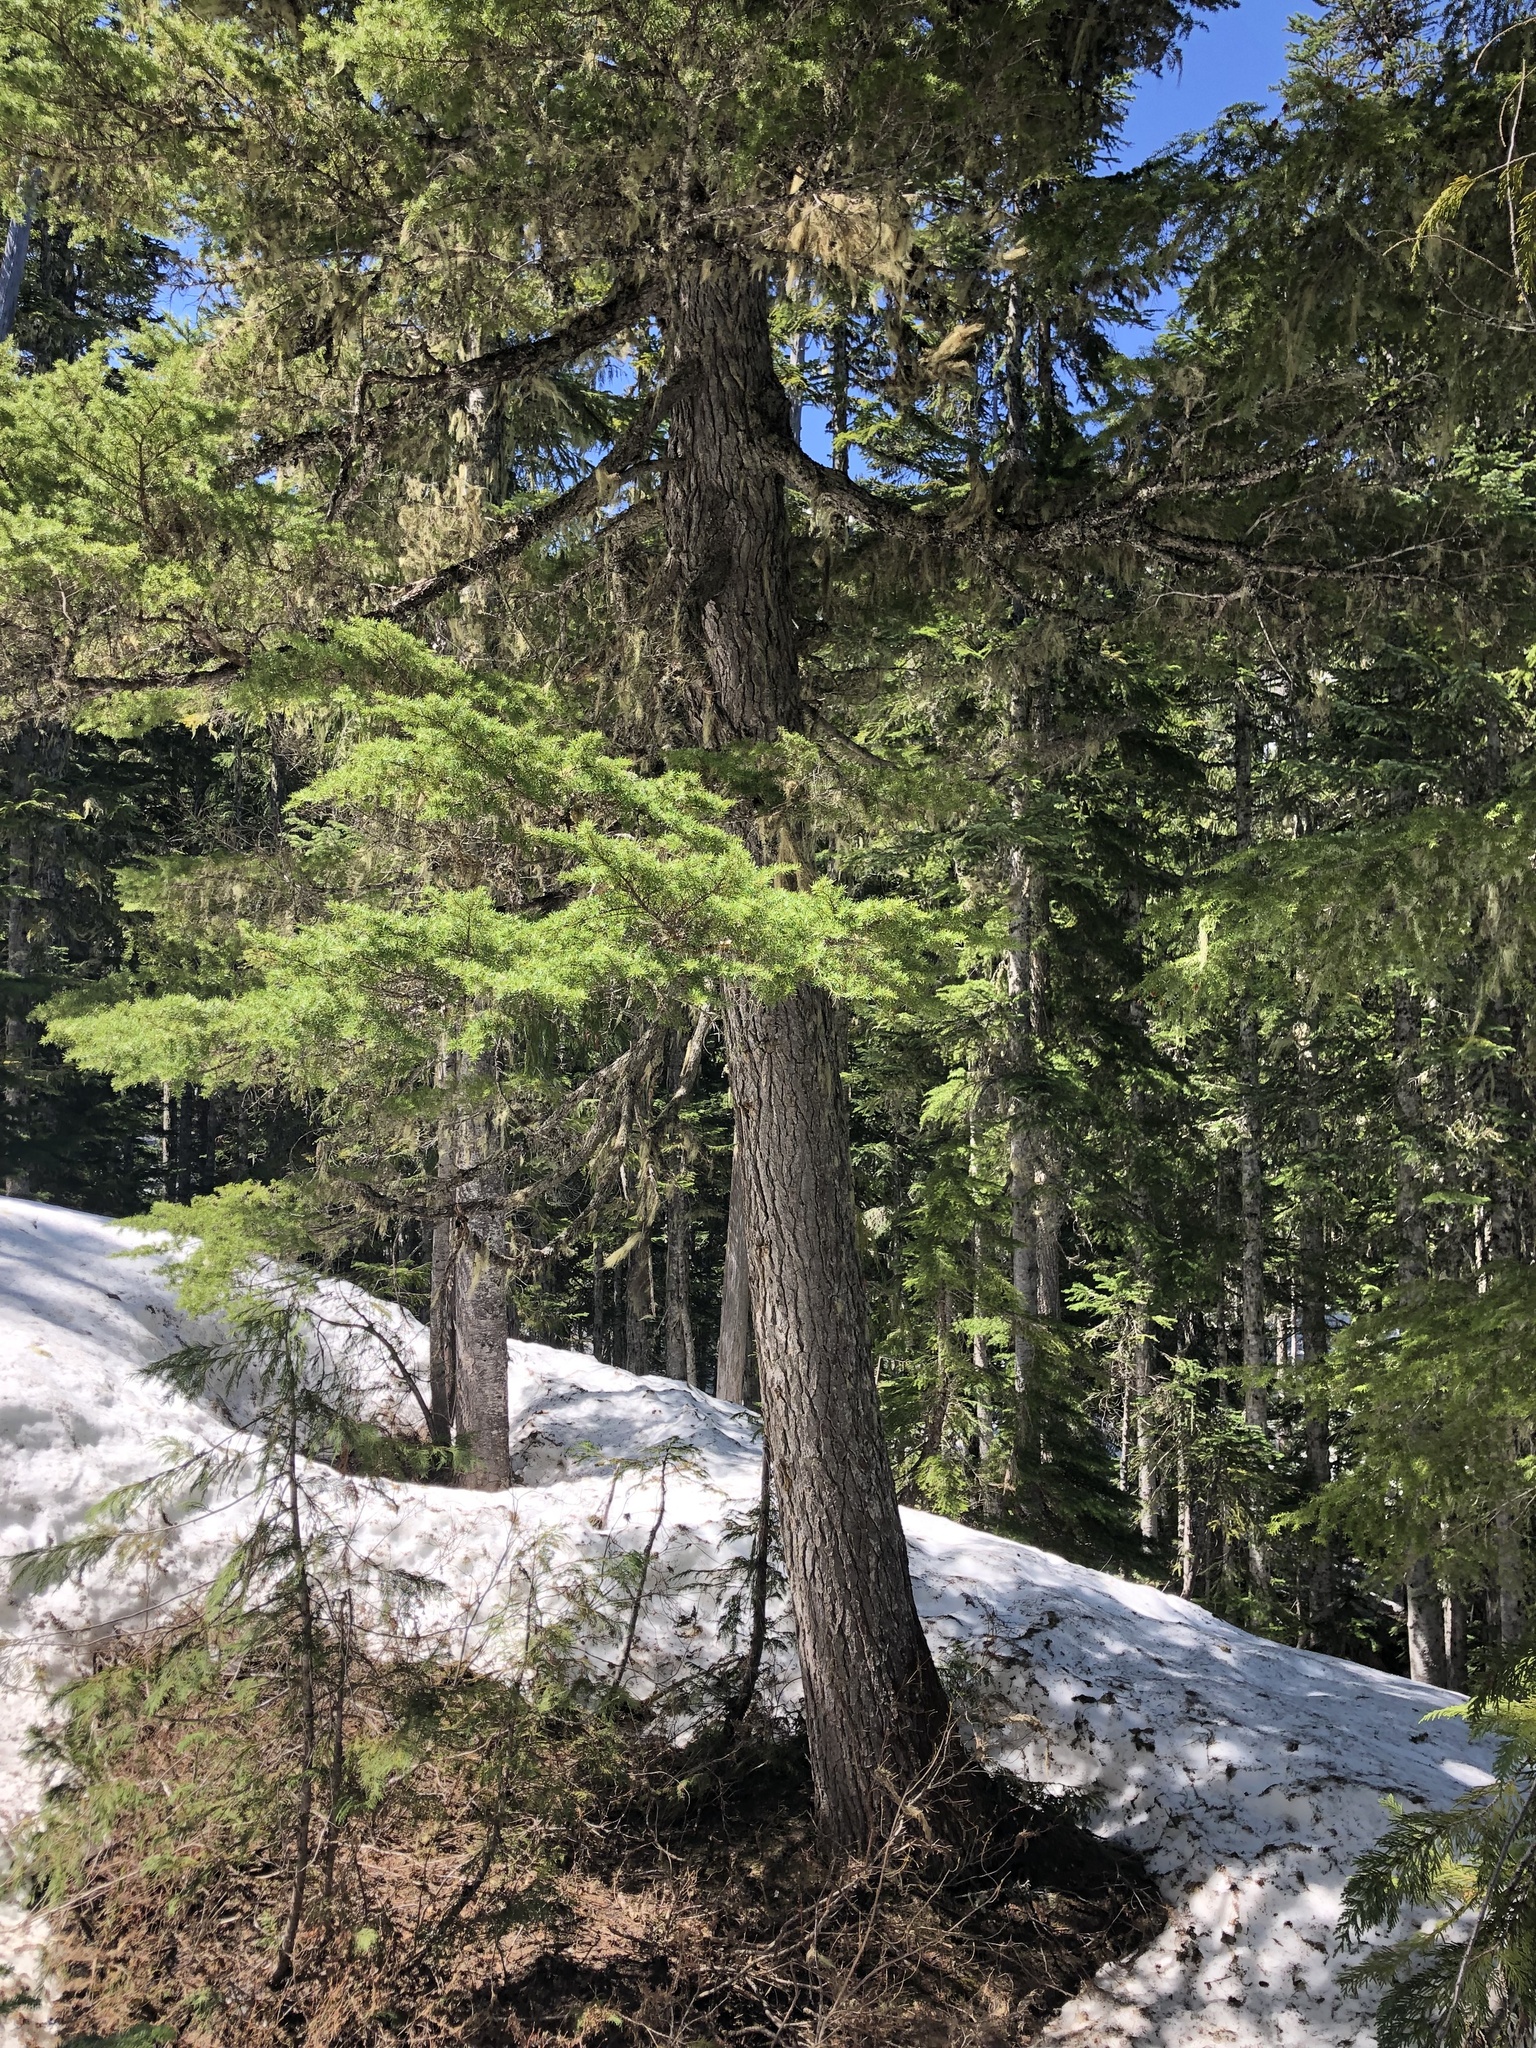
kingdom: Plantae
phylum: Tracheophyta
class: Pinopsida
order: Pinales
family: Pinaceae
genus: Tsuga
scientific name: Tsuga mertensiana
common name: Mountain hemlock
